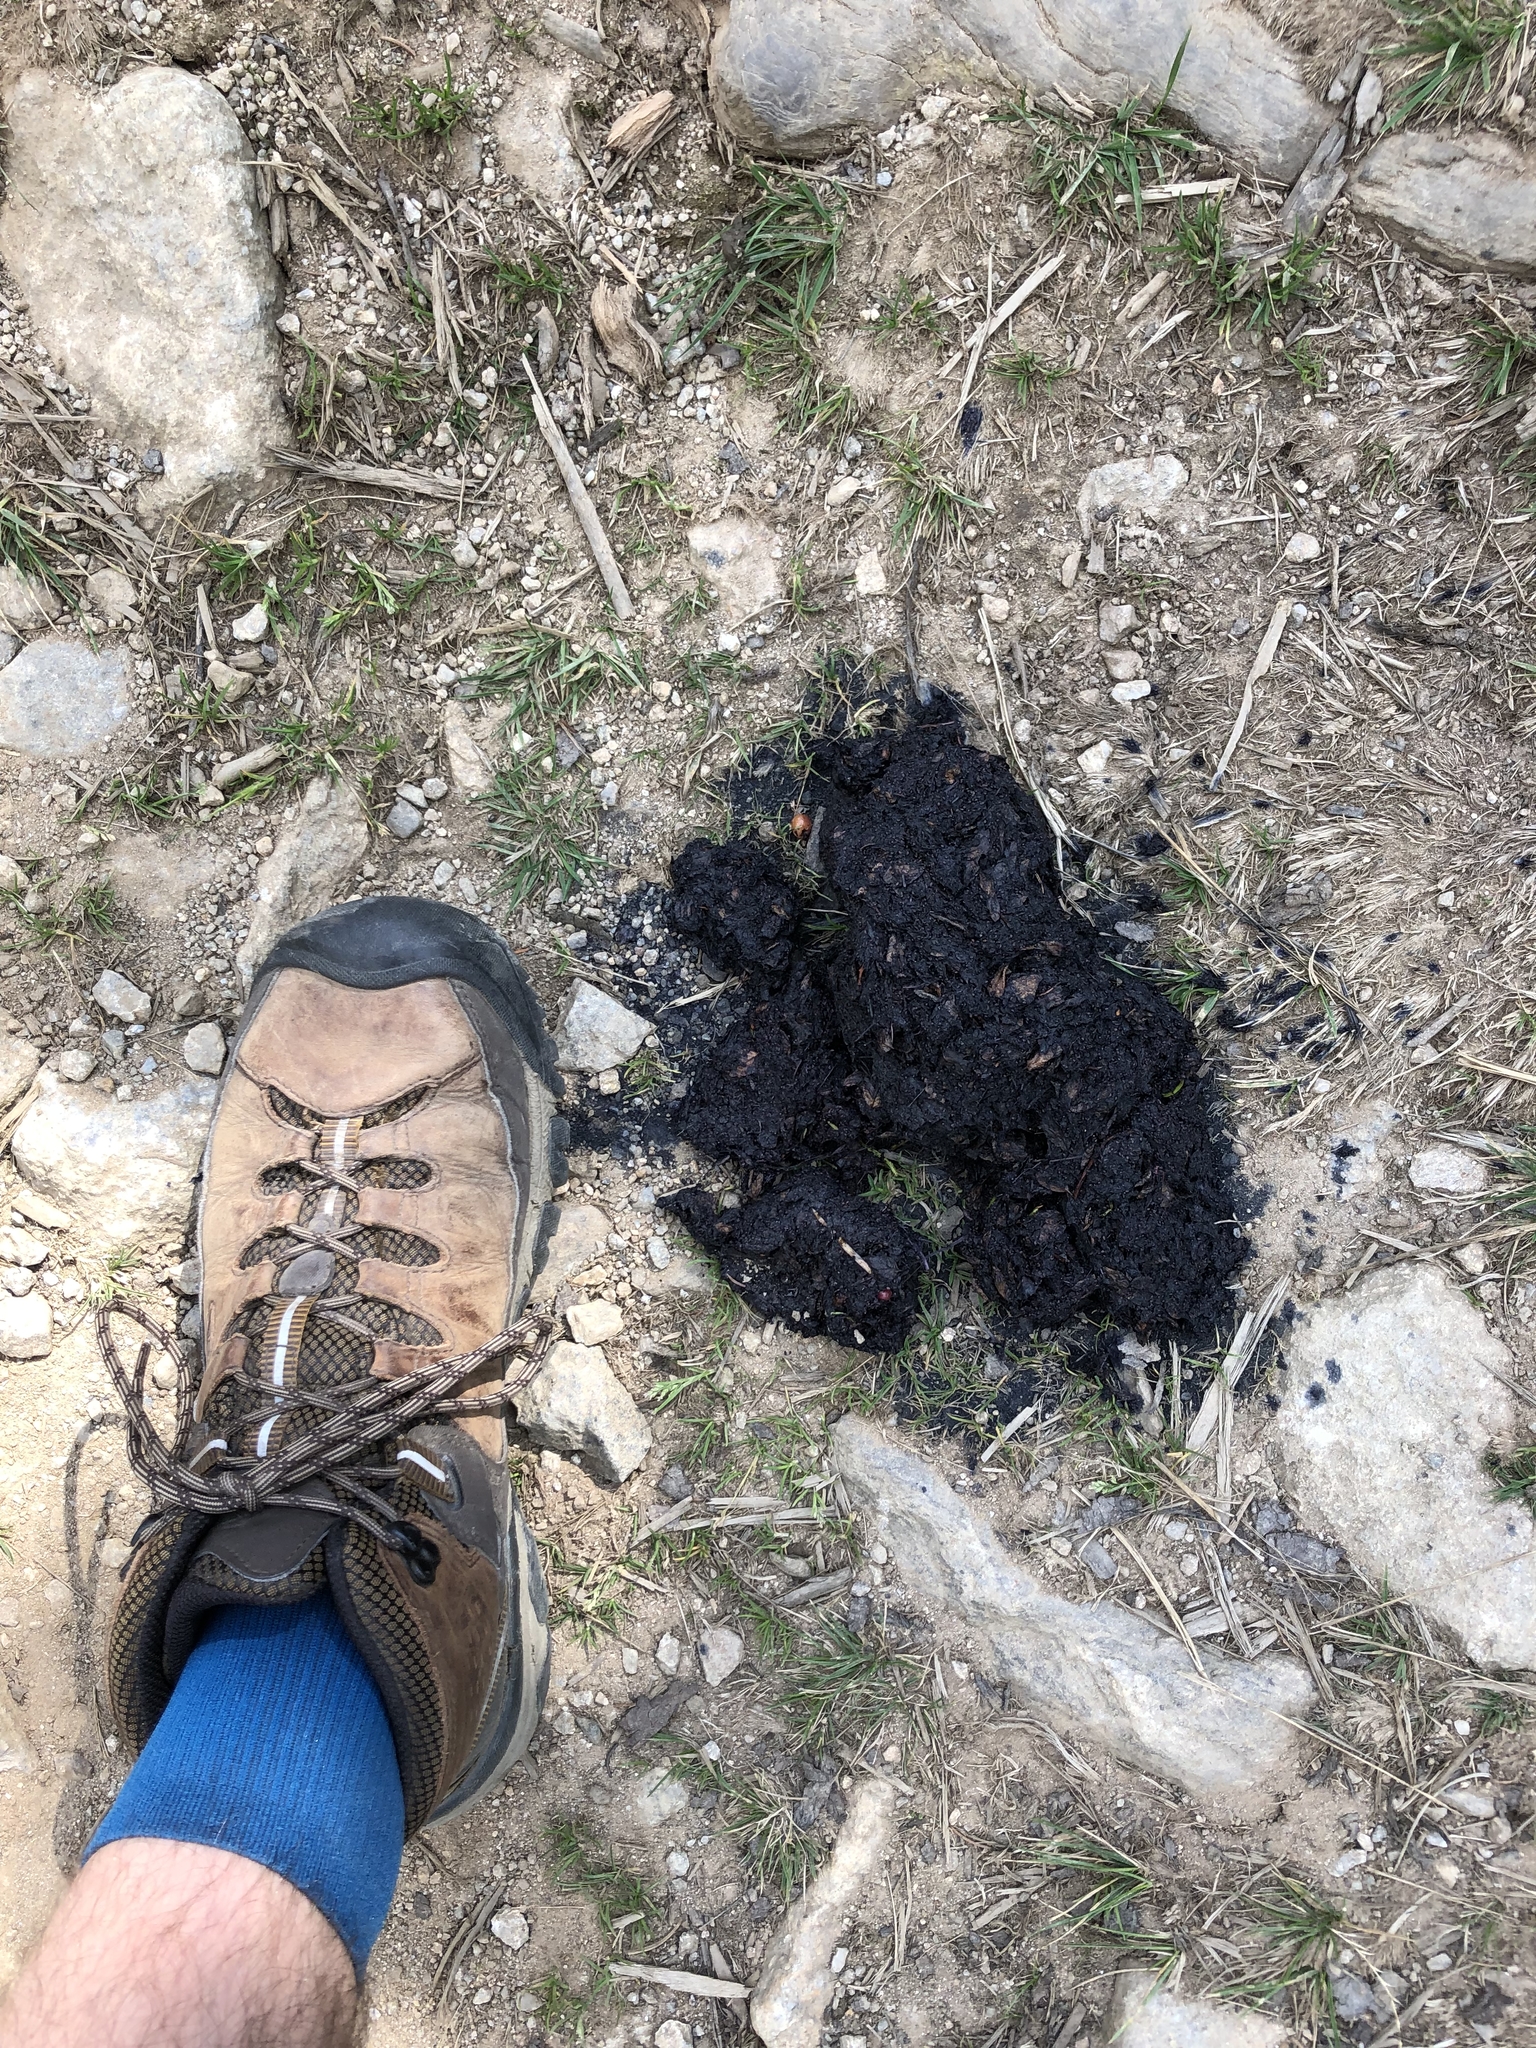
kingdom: Animalia
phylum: Chordata
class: Mammalia
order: Carnivora
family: Ursidae
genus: Ursus
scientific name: Ursus arctos
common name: Brown bear
